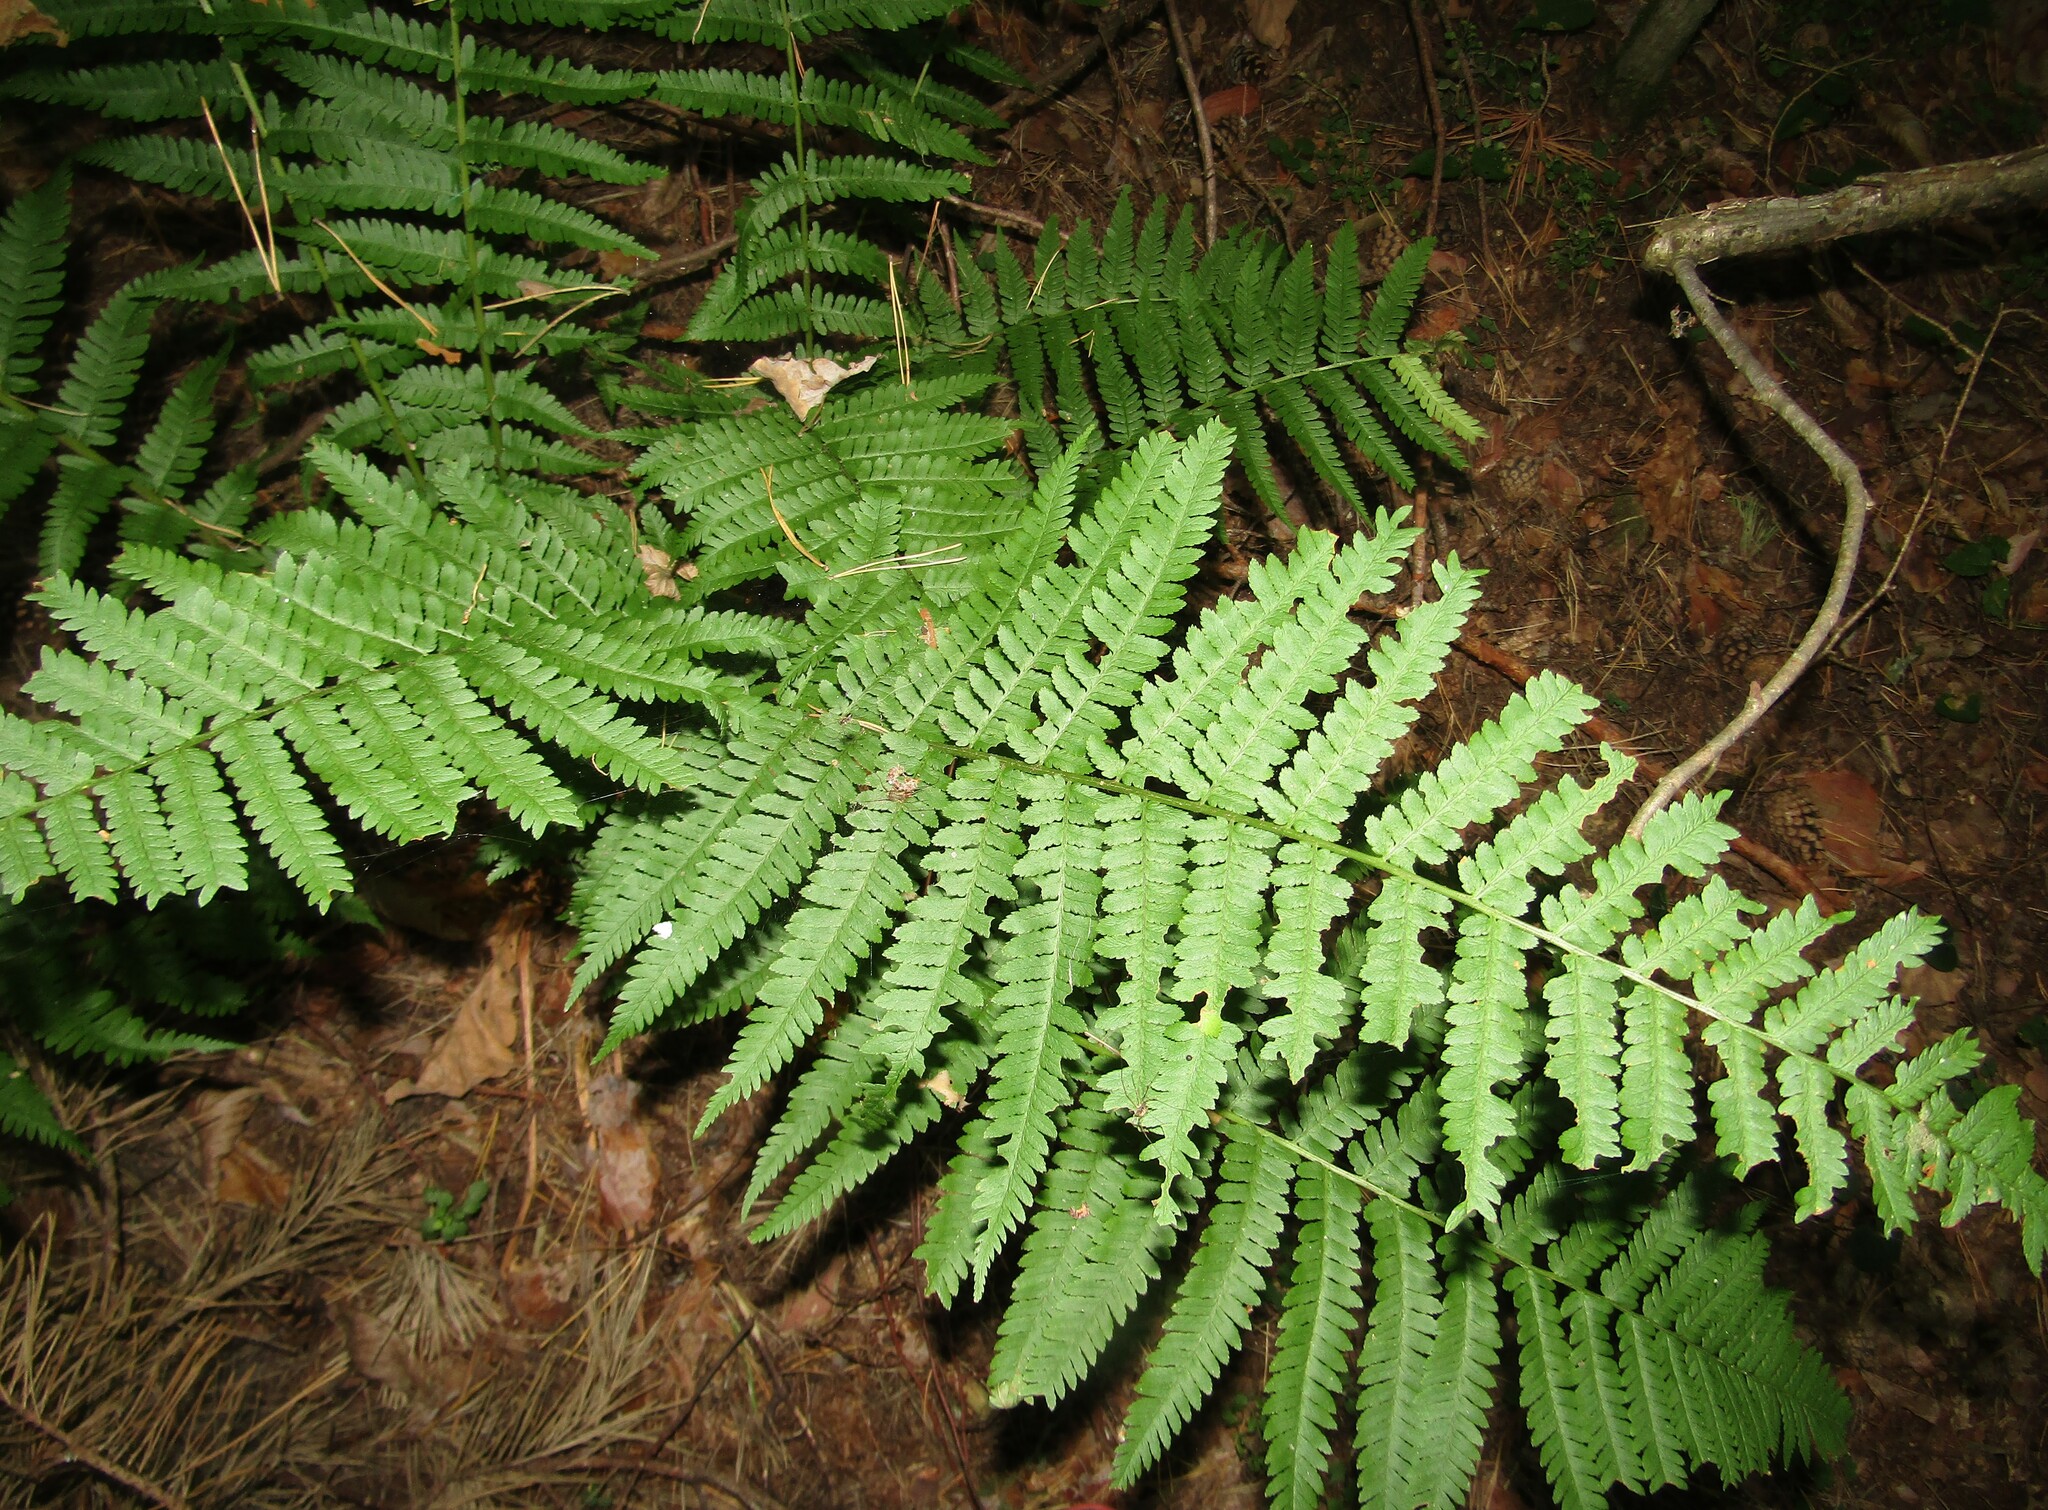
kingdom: Plantae
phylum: Tracheophyta
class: Polypodiopsida
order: Polypodiales
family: Dryopteridaceae
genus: Dryopteris
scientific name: Dryopteris filix-mas
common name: Male fern
